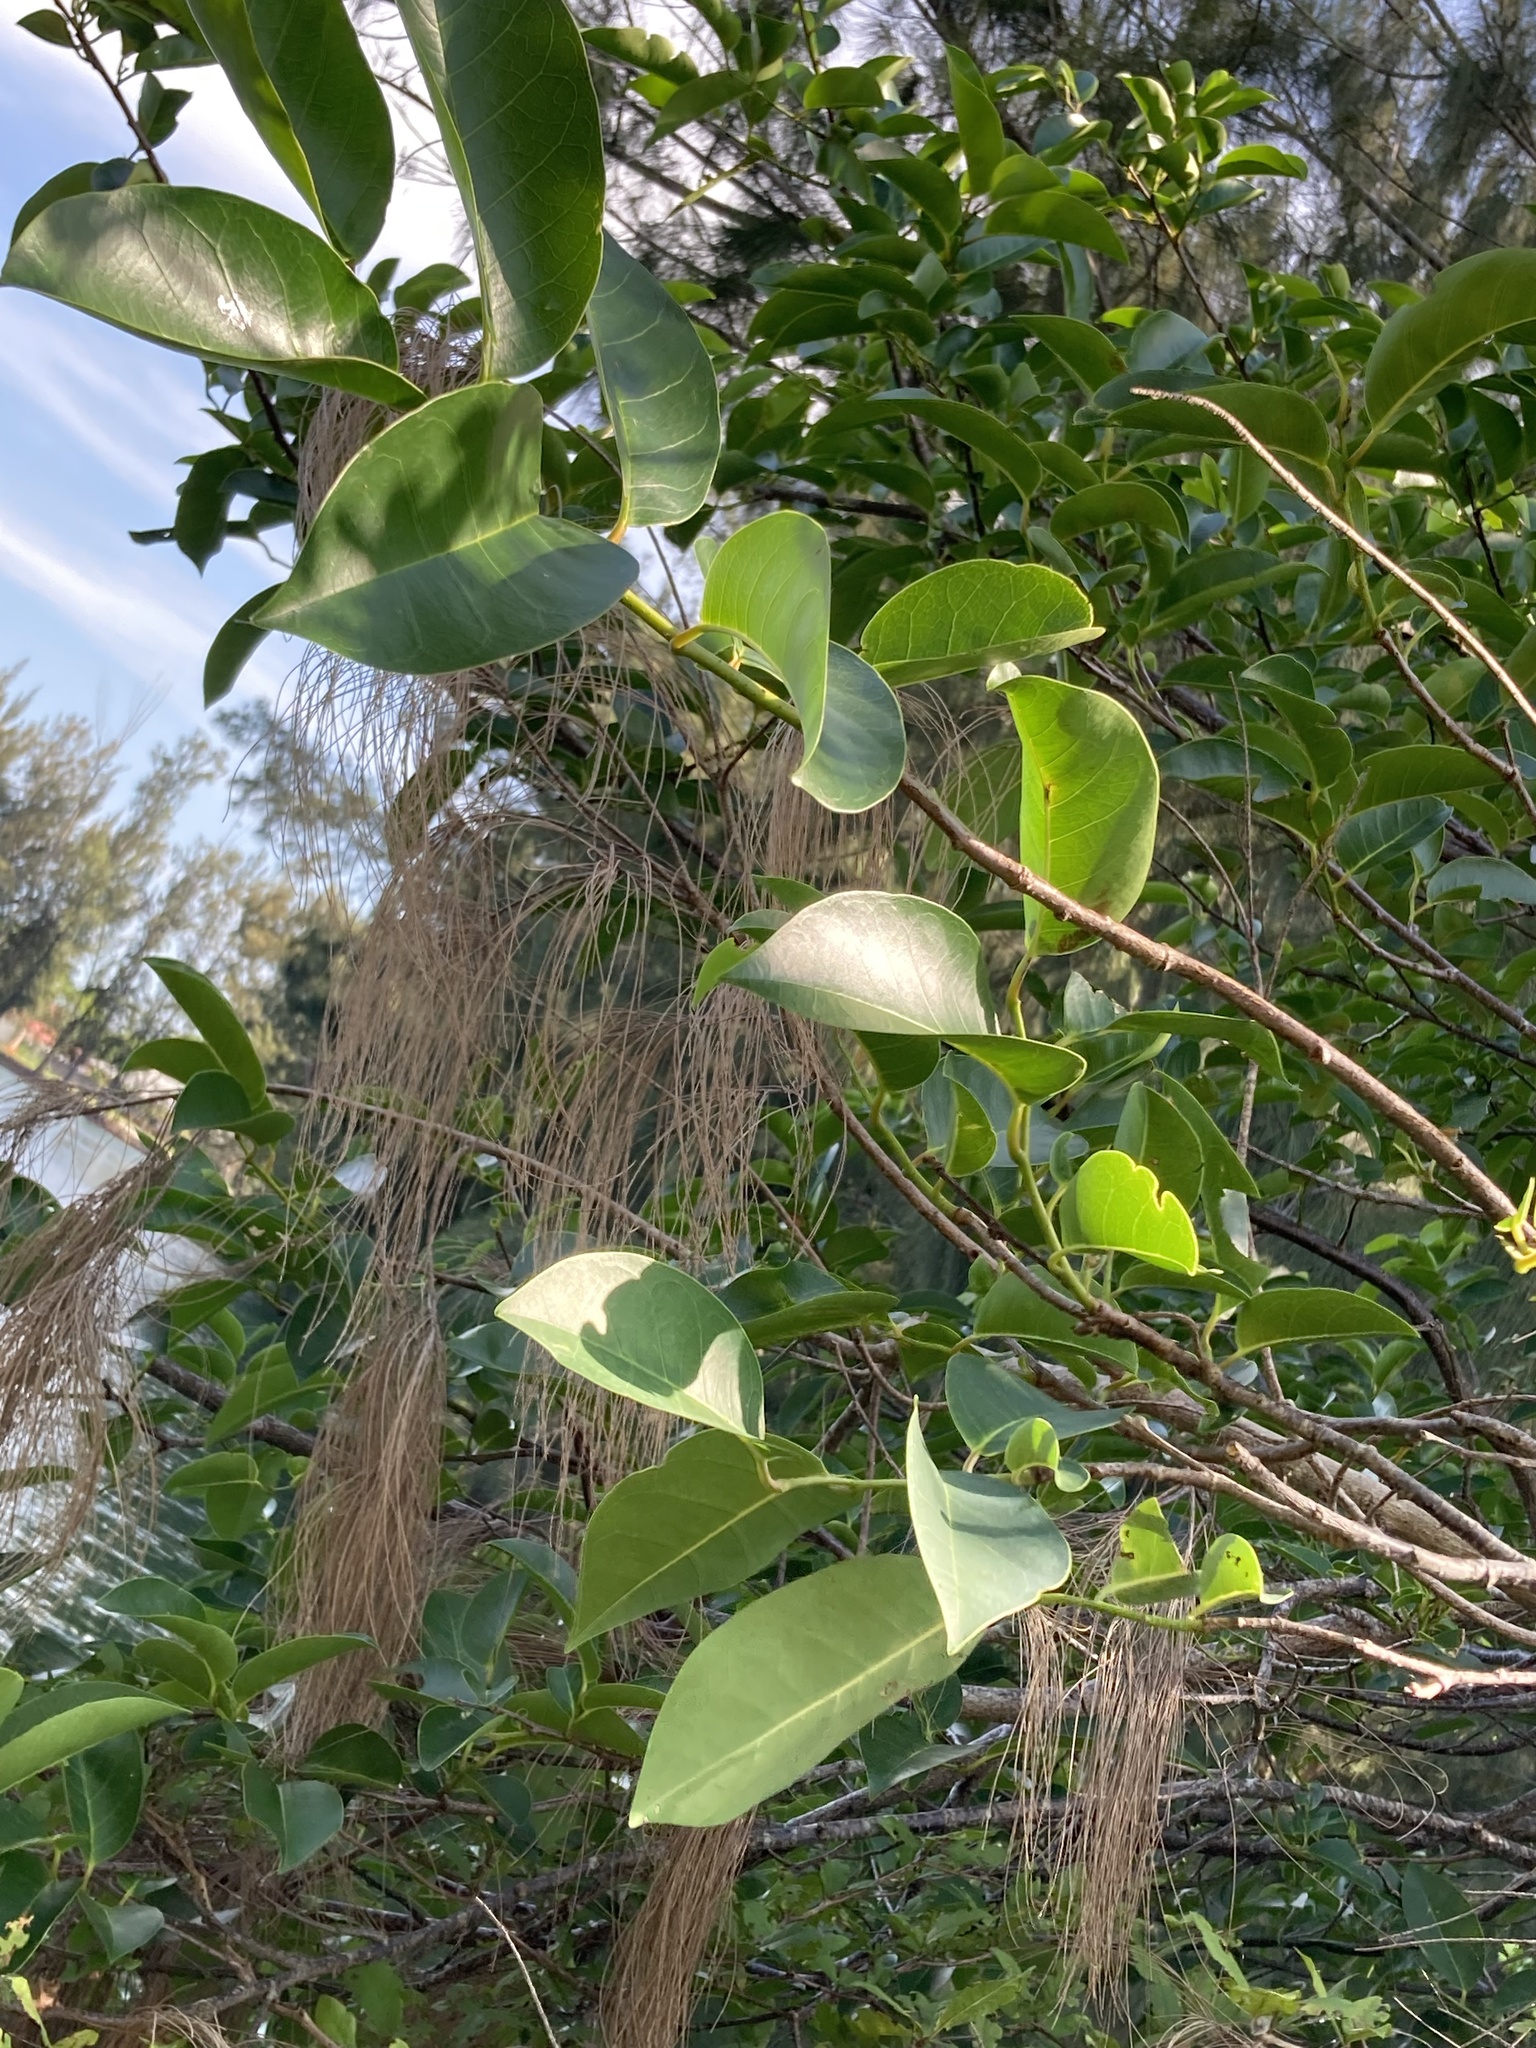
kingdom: Plantae
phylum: Tracheophyta
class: Magnoliopsida
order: Magnoliales
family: Annonaceae
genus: Annona
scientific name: Annona glabra
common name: Monkey apple
